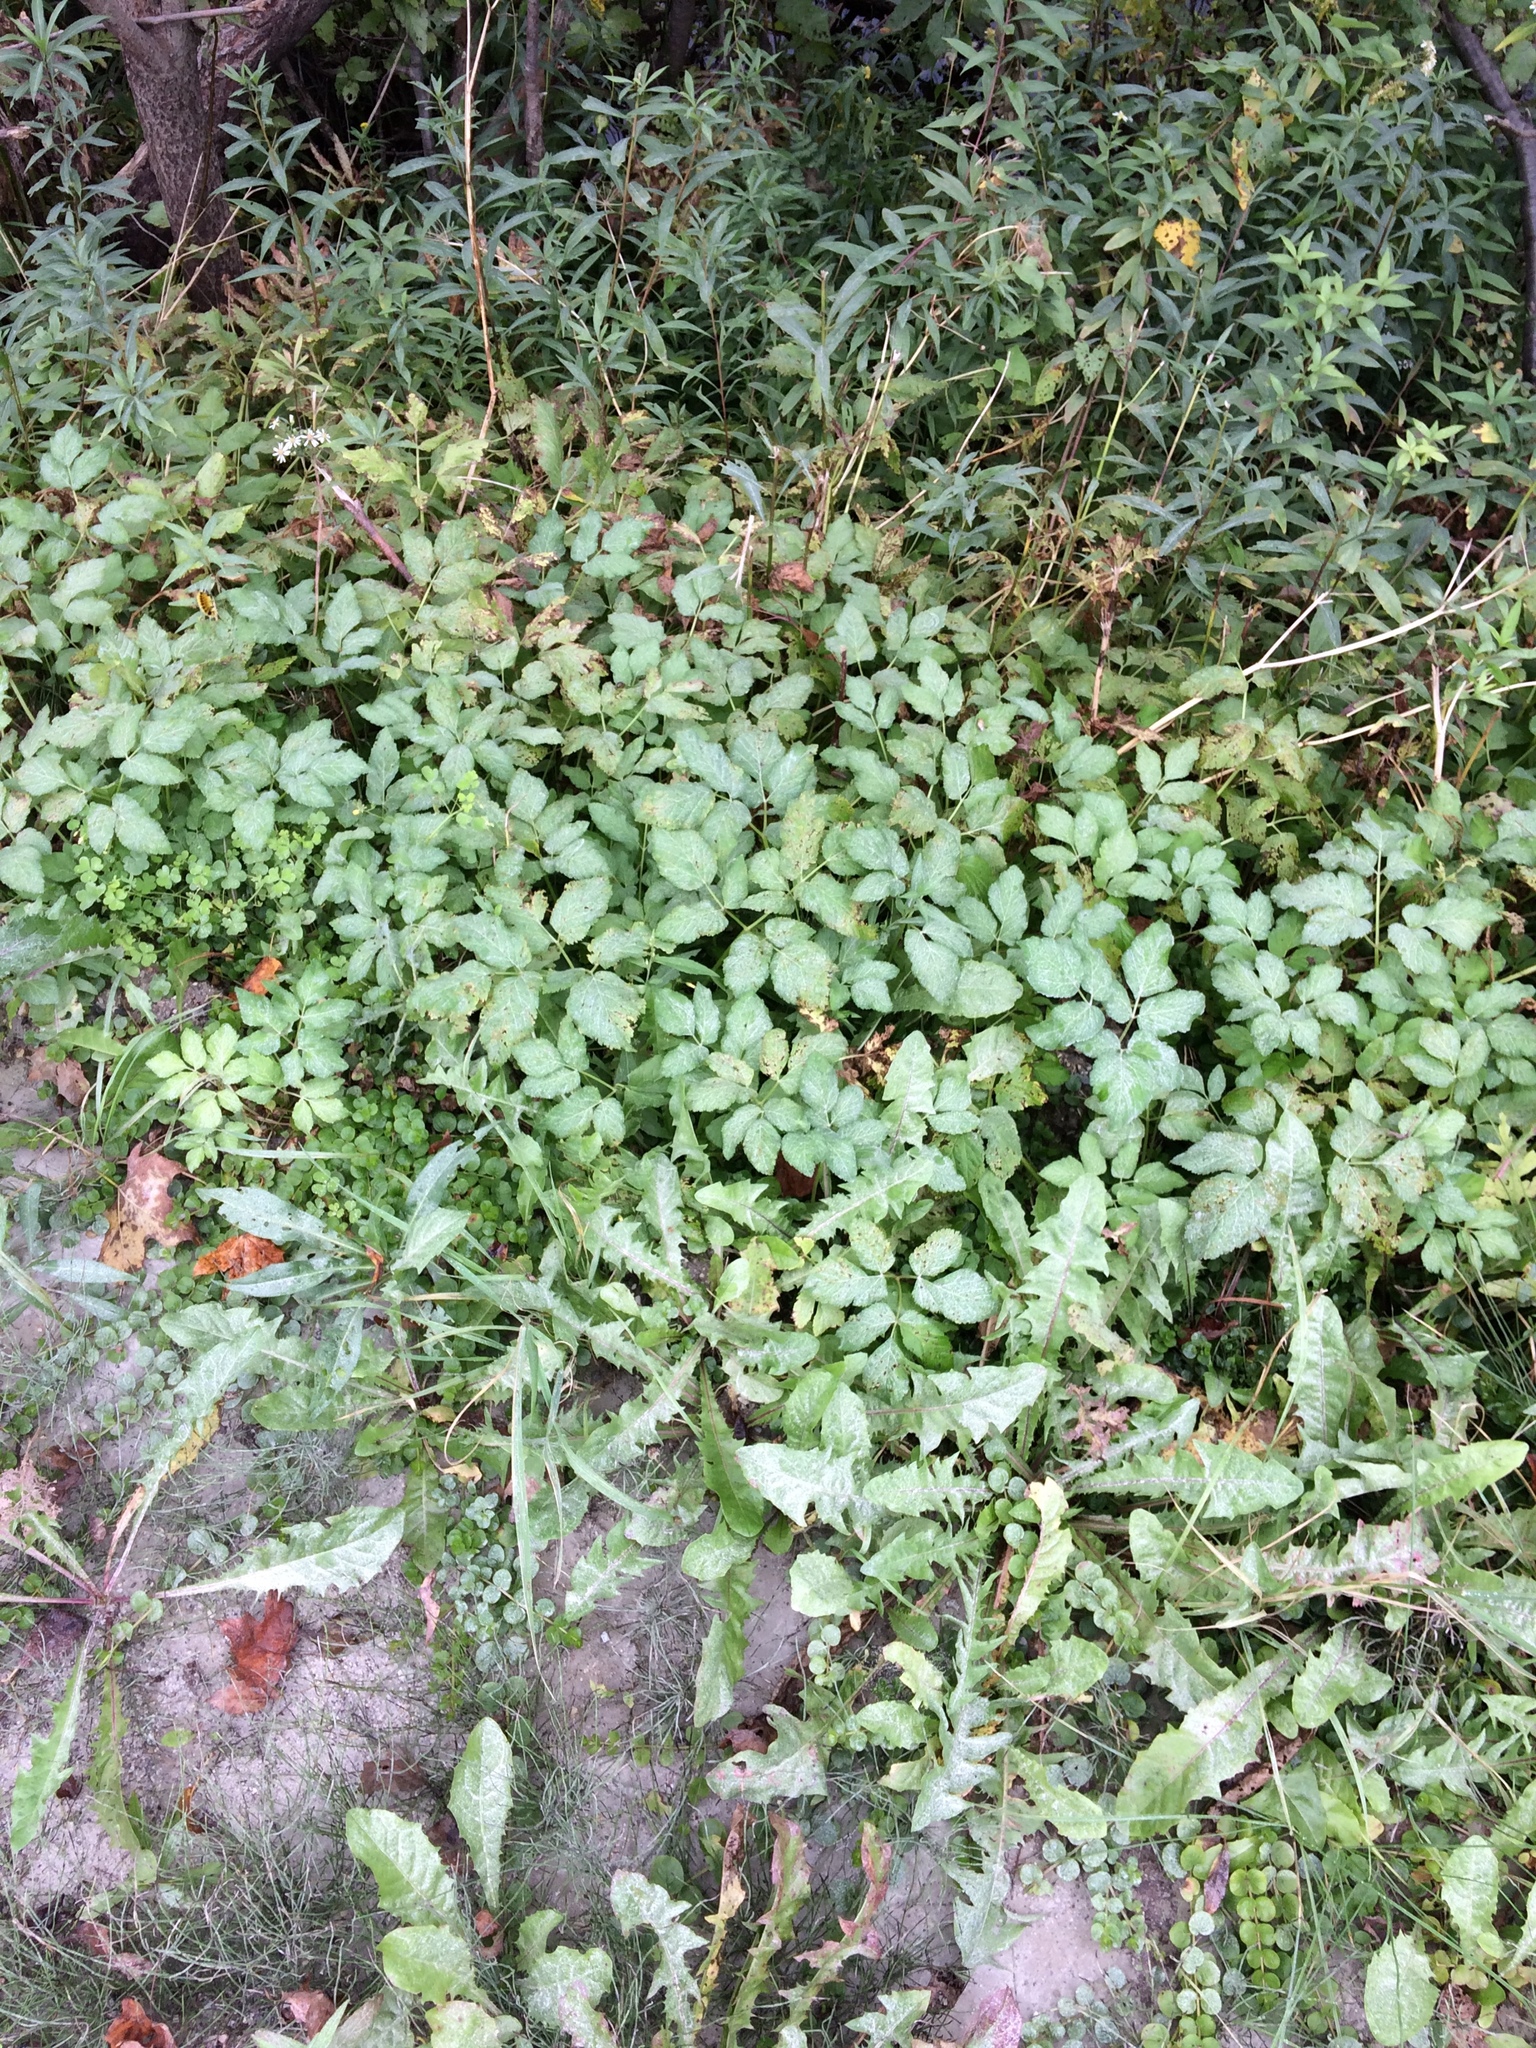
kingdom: Plantae
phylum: Tracheophyta
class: Magnoliopsida
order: Apiales
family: Apiaceae
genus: Aegopodium
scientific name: Aegopodium podagraria
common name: Ground-elder
